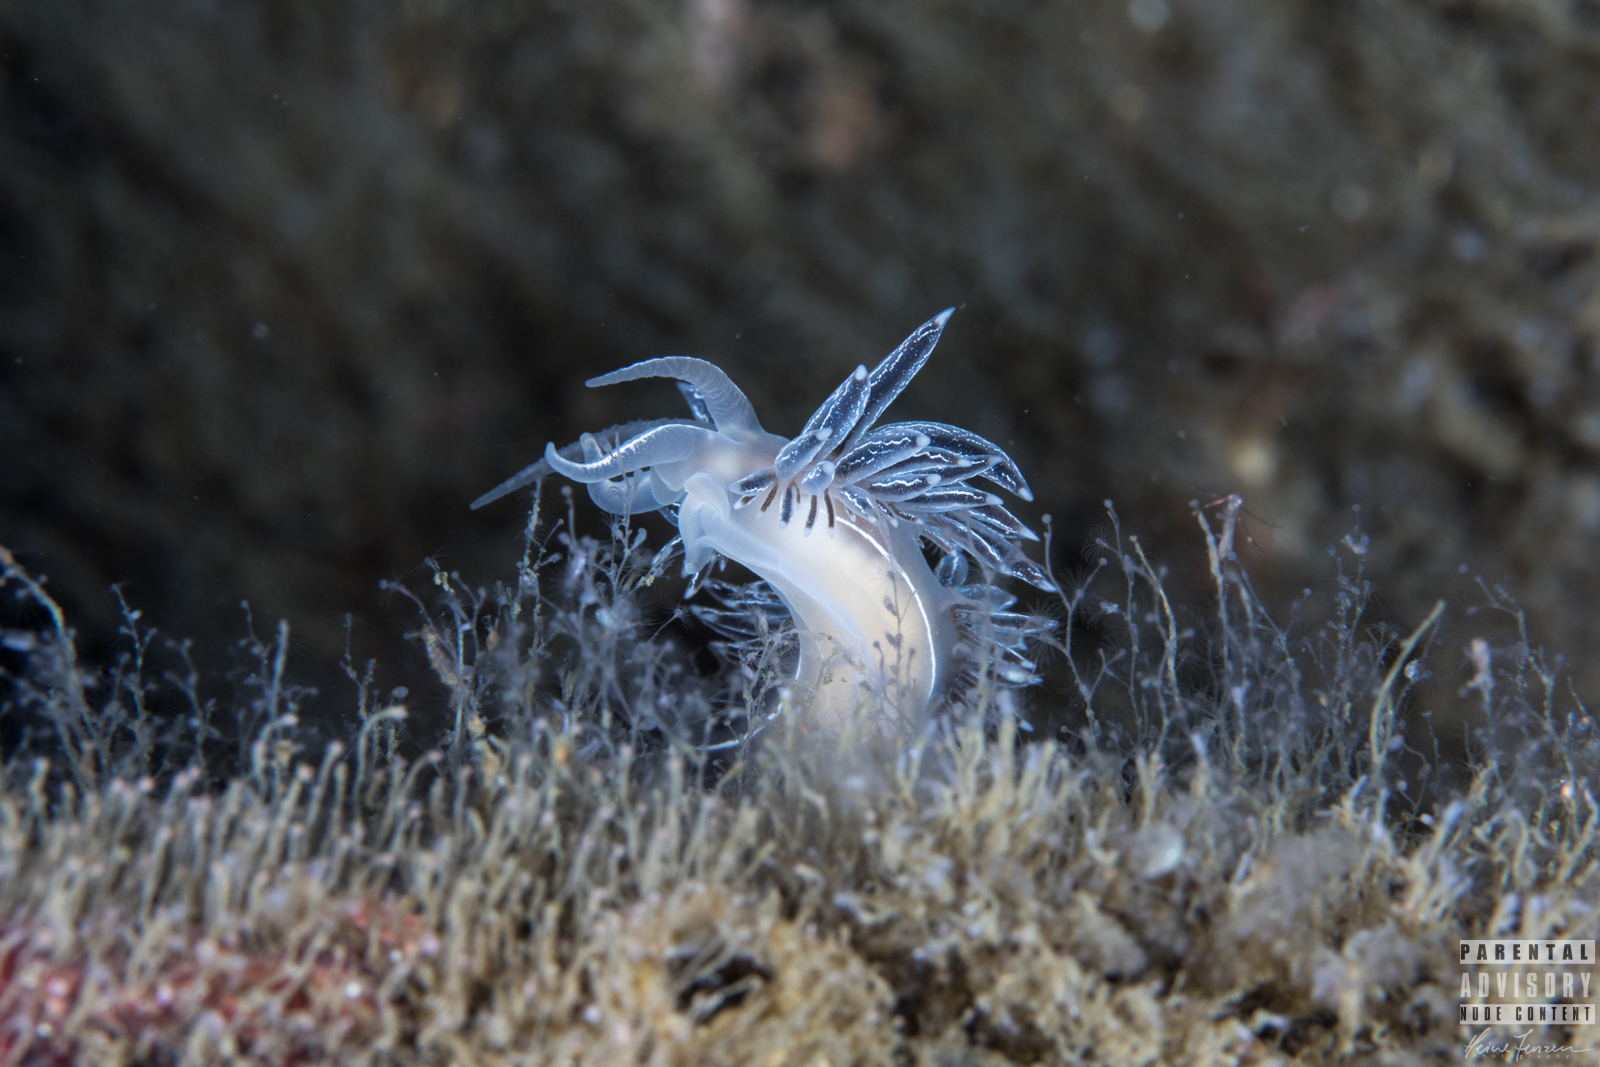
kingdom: Animalia
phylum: Mollusca
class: Gastropoda
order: Nudibranchia
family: Coryphellidae
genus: Coryphella
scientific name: Coryphella chriskaugei
